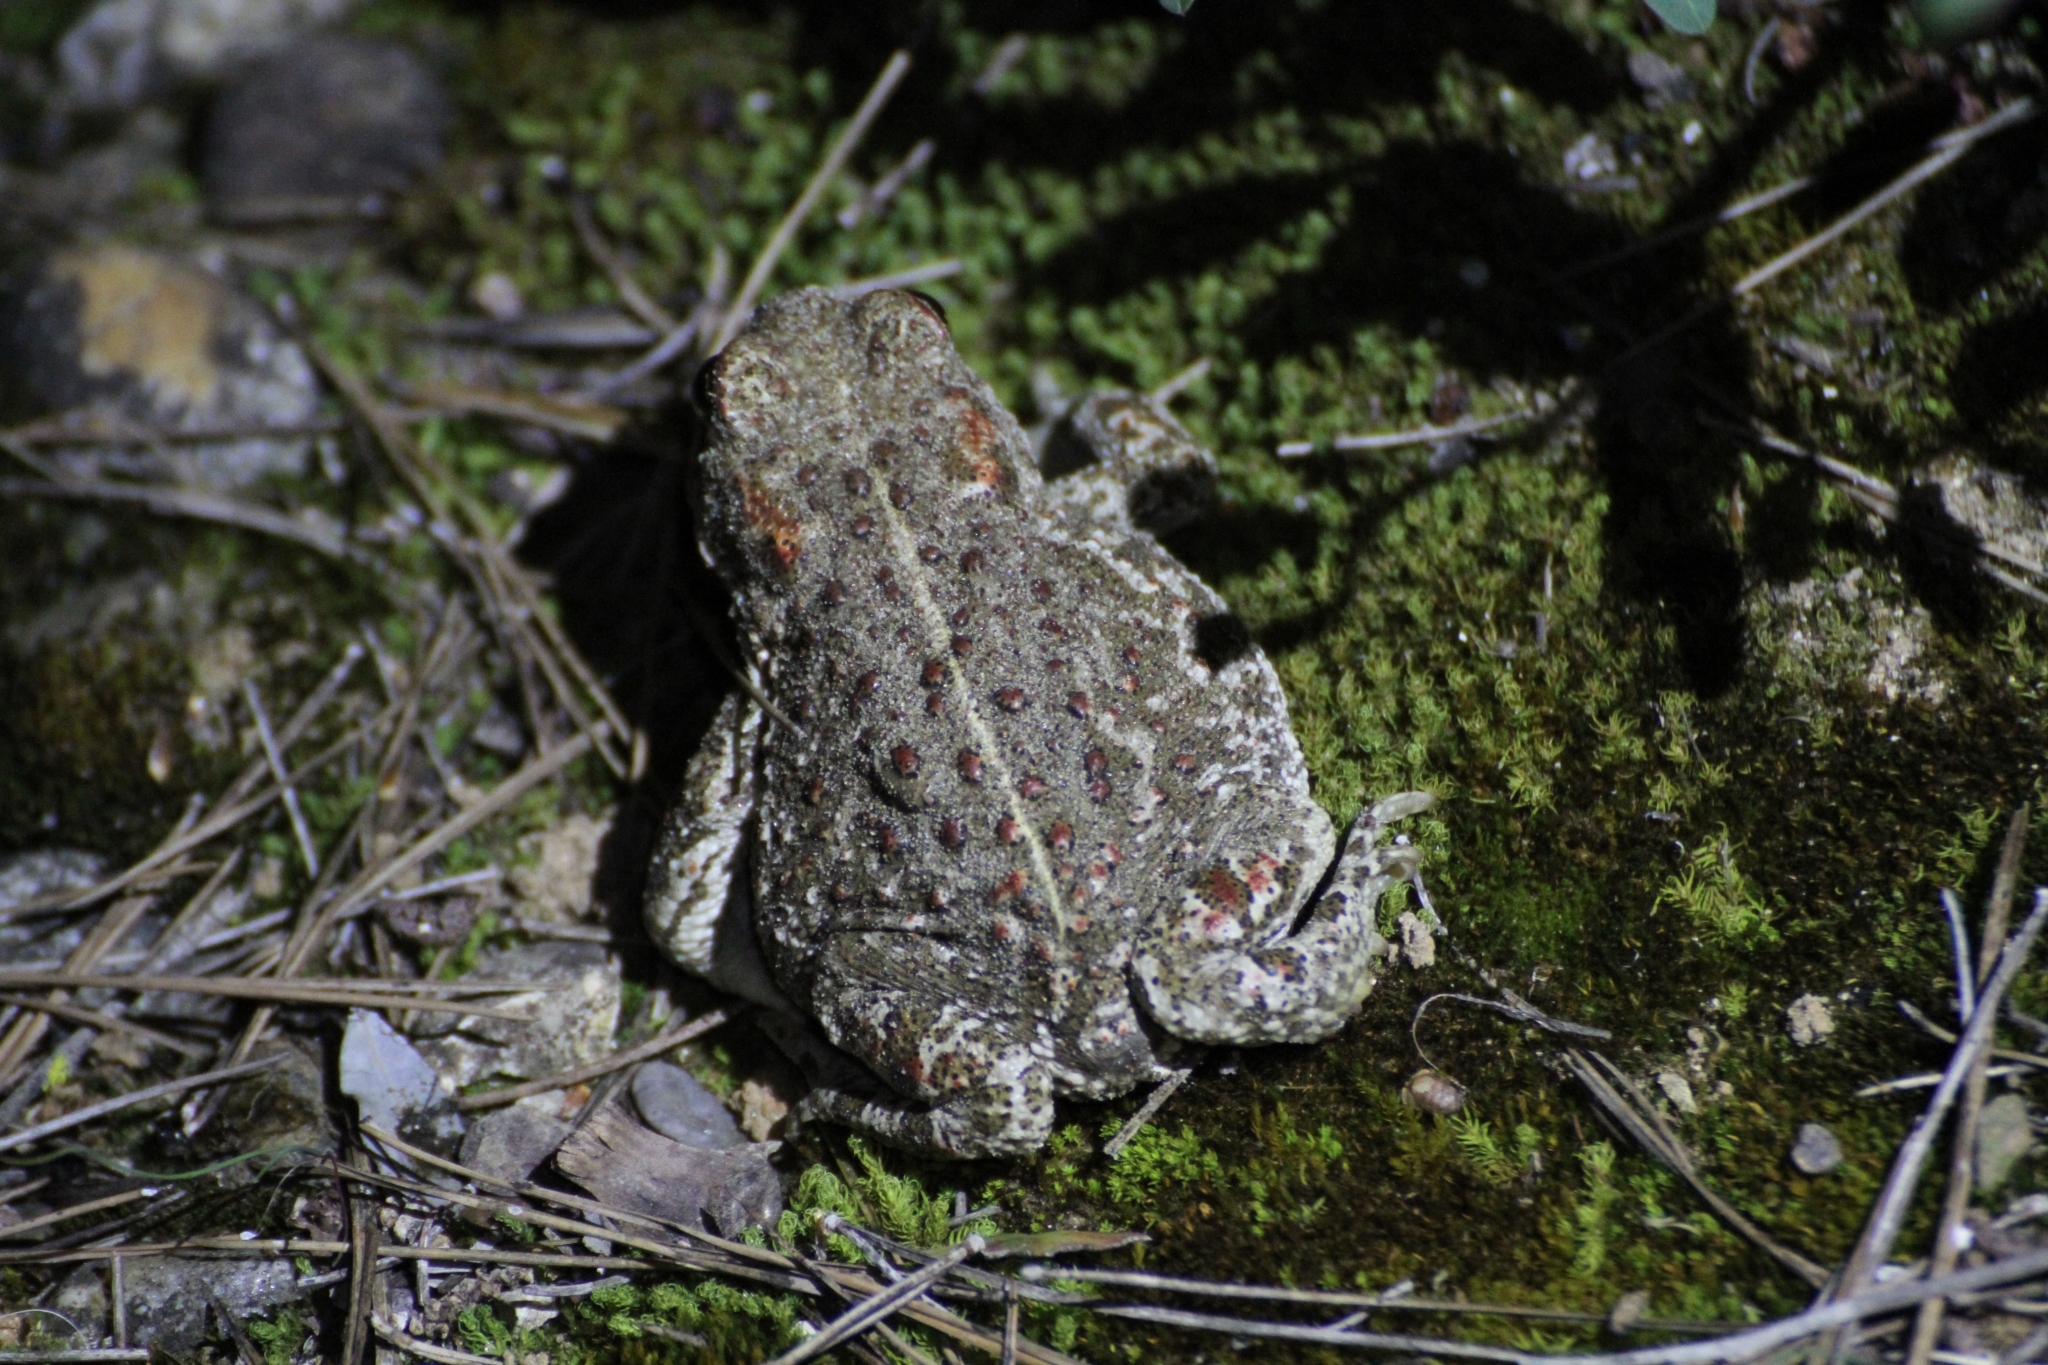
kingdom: Animalia
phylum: Chordata
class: Amphibia
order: Anura
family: Bufonidae
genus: Epidalea
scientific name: Epidalea calamita
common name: Natterjack toad
